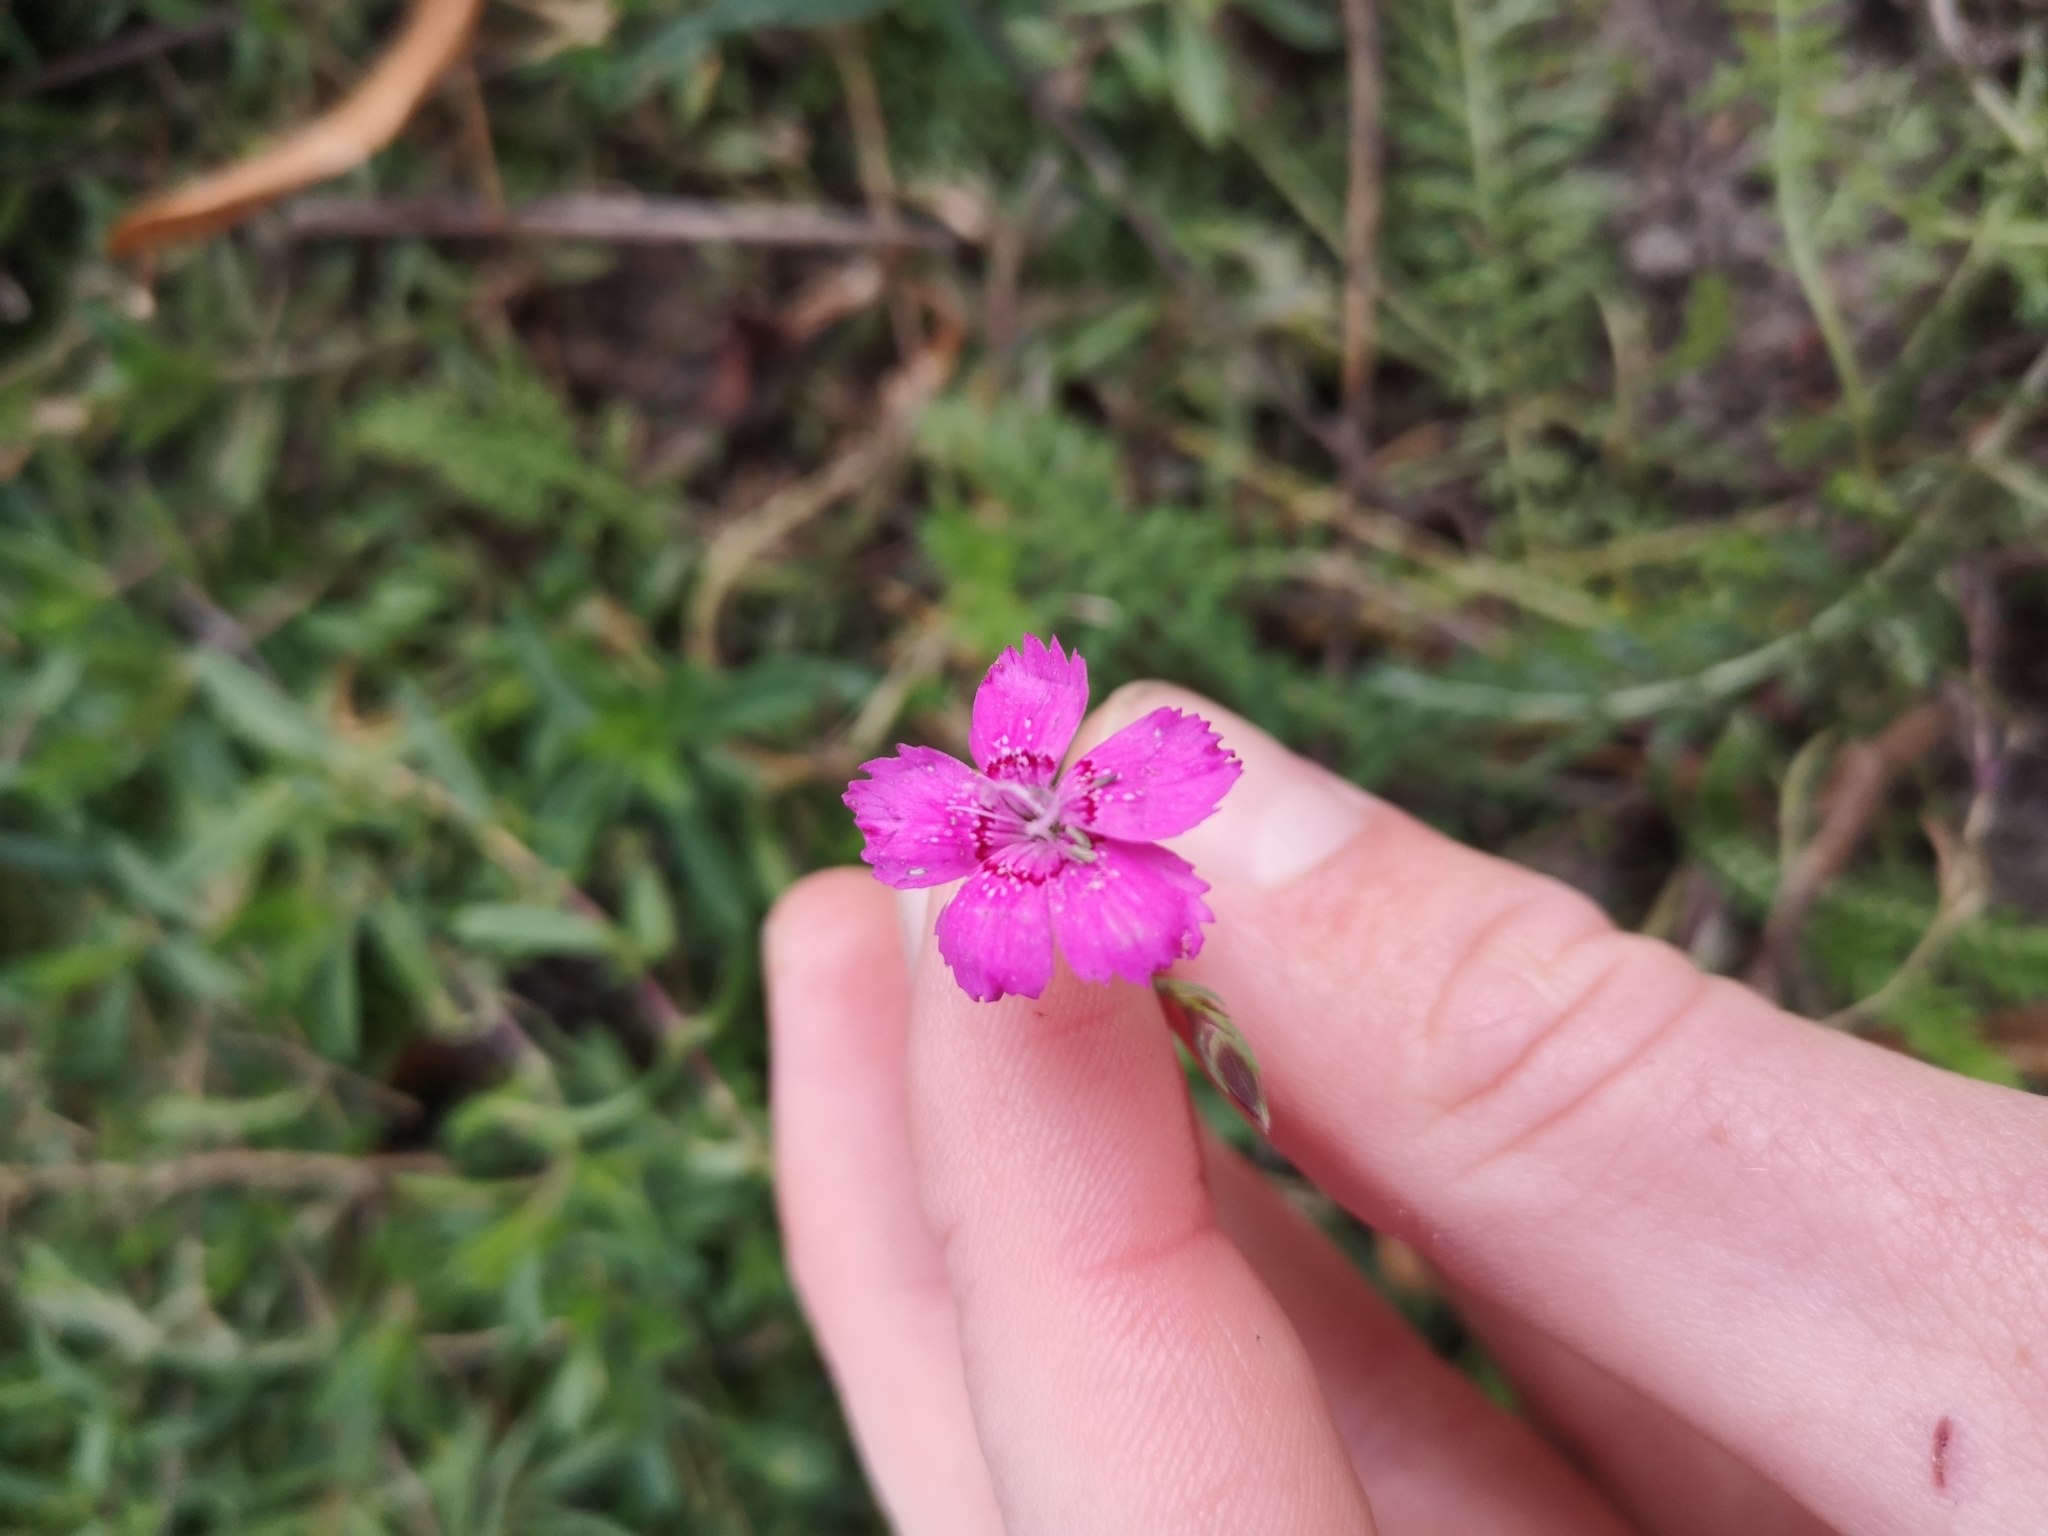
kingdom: Plantae
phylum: Tracheophyta
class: Magnoliopsida
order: Caryophyllales
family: Caryophyllaceae
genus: Dianthus
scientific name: Dianthus deltoides
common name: Maiden pink
